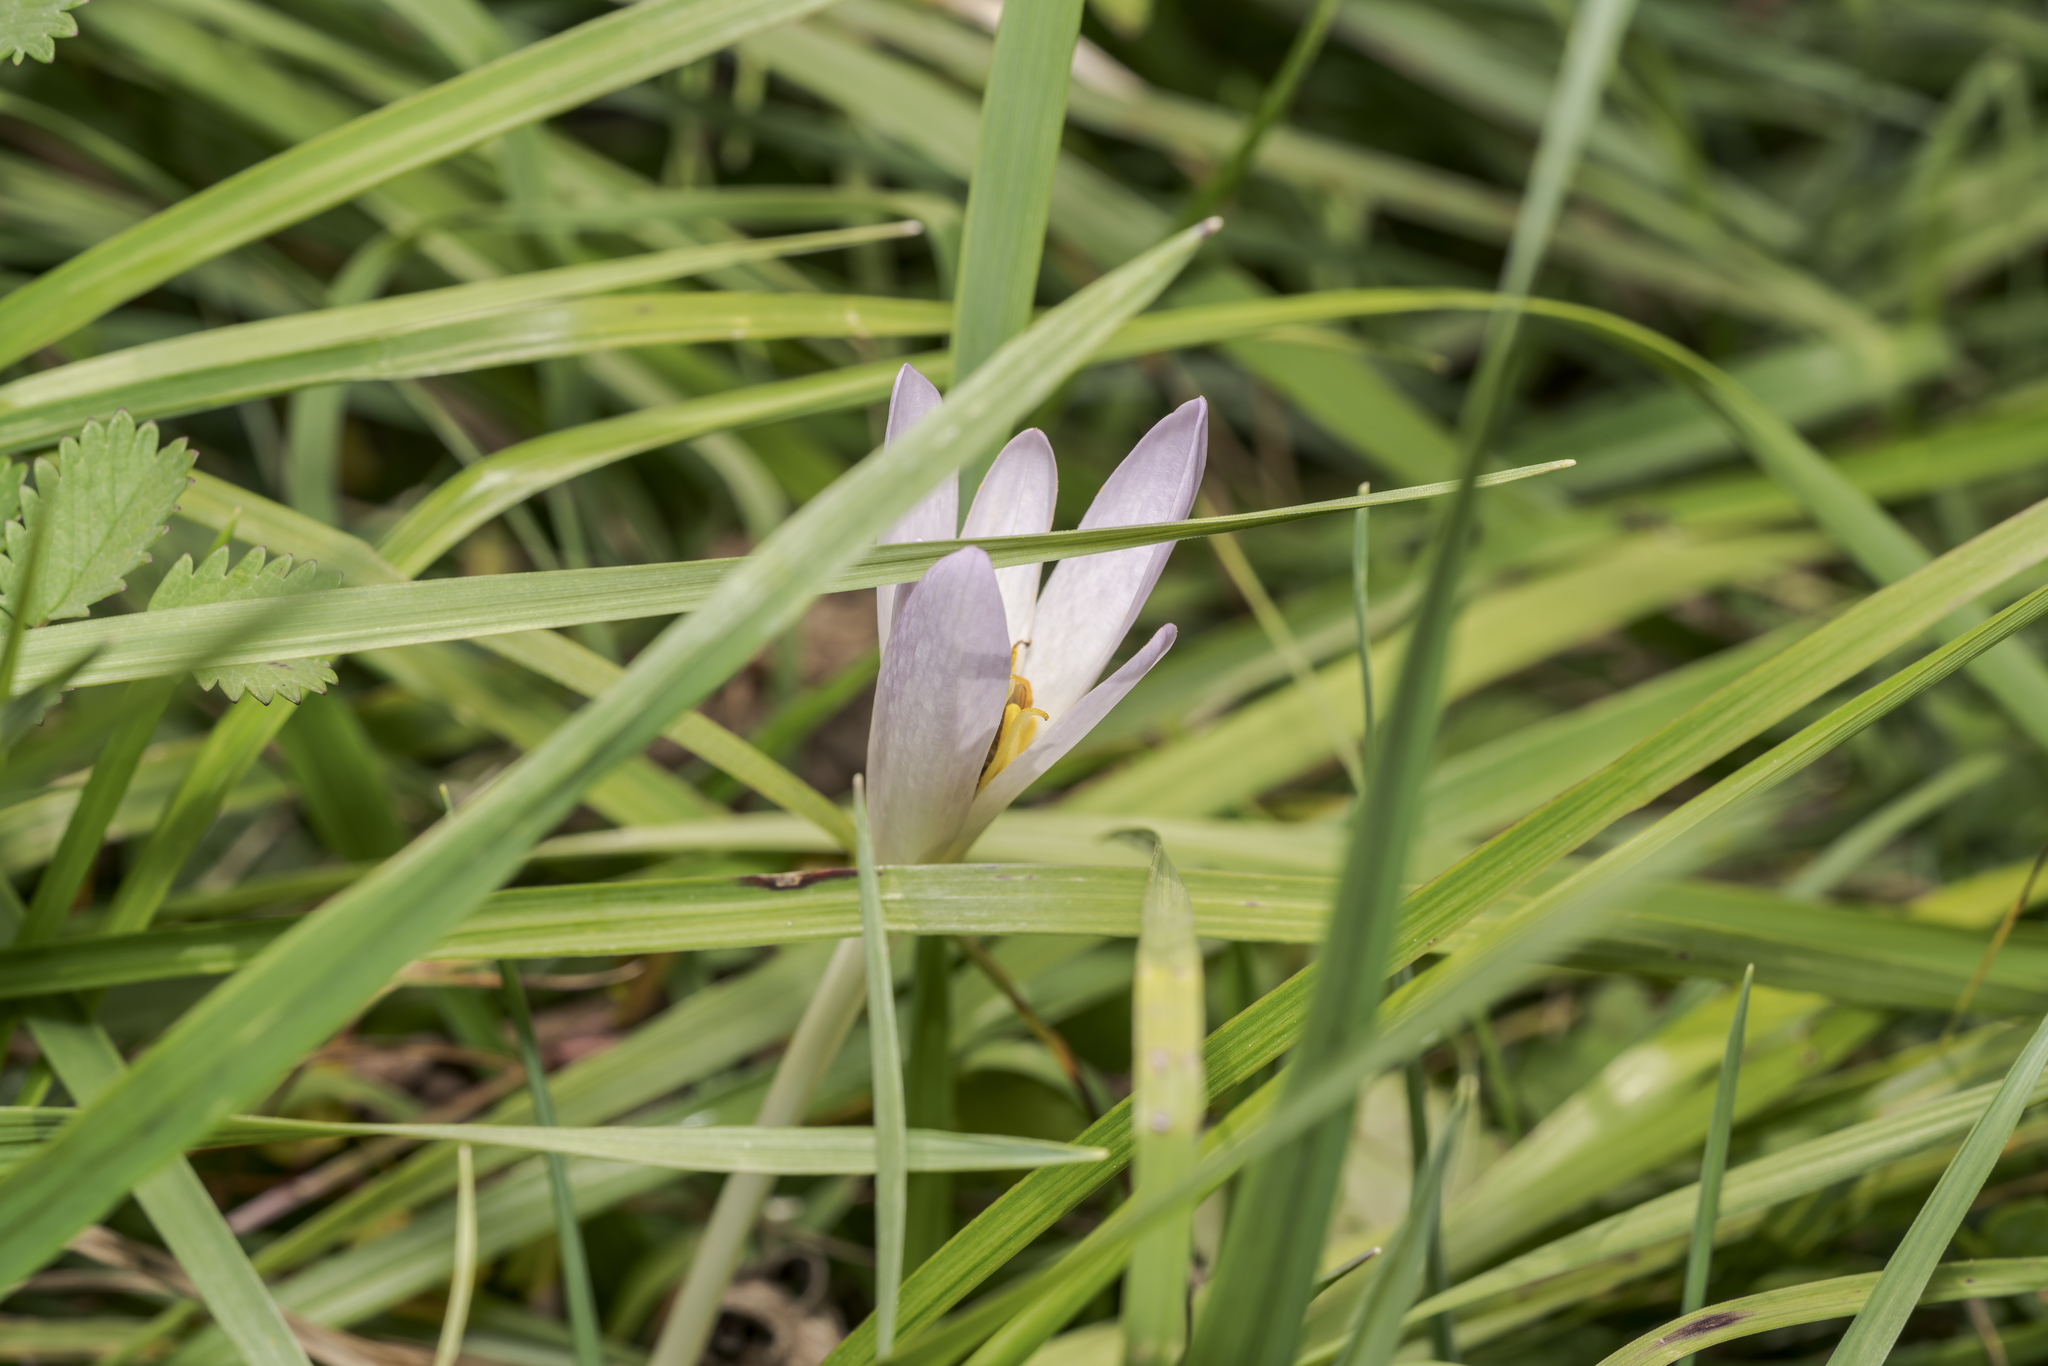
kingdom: Plantae
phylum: Tracheophyta
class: Liliopsida
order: Liliales
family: Colchicaceae
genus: Colchicum
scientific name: Colchicum autumnale
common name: Autumn crocus
